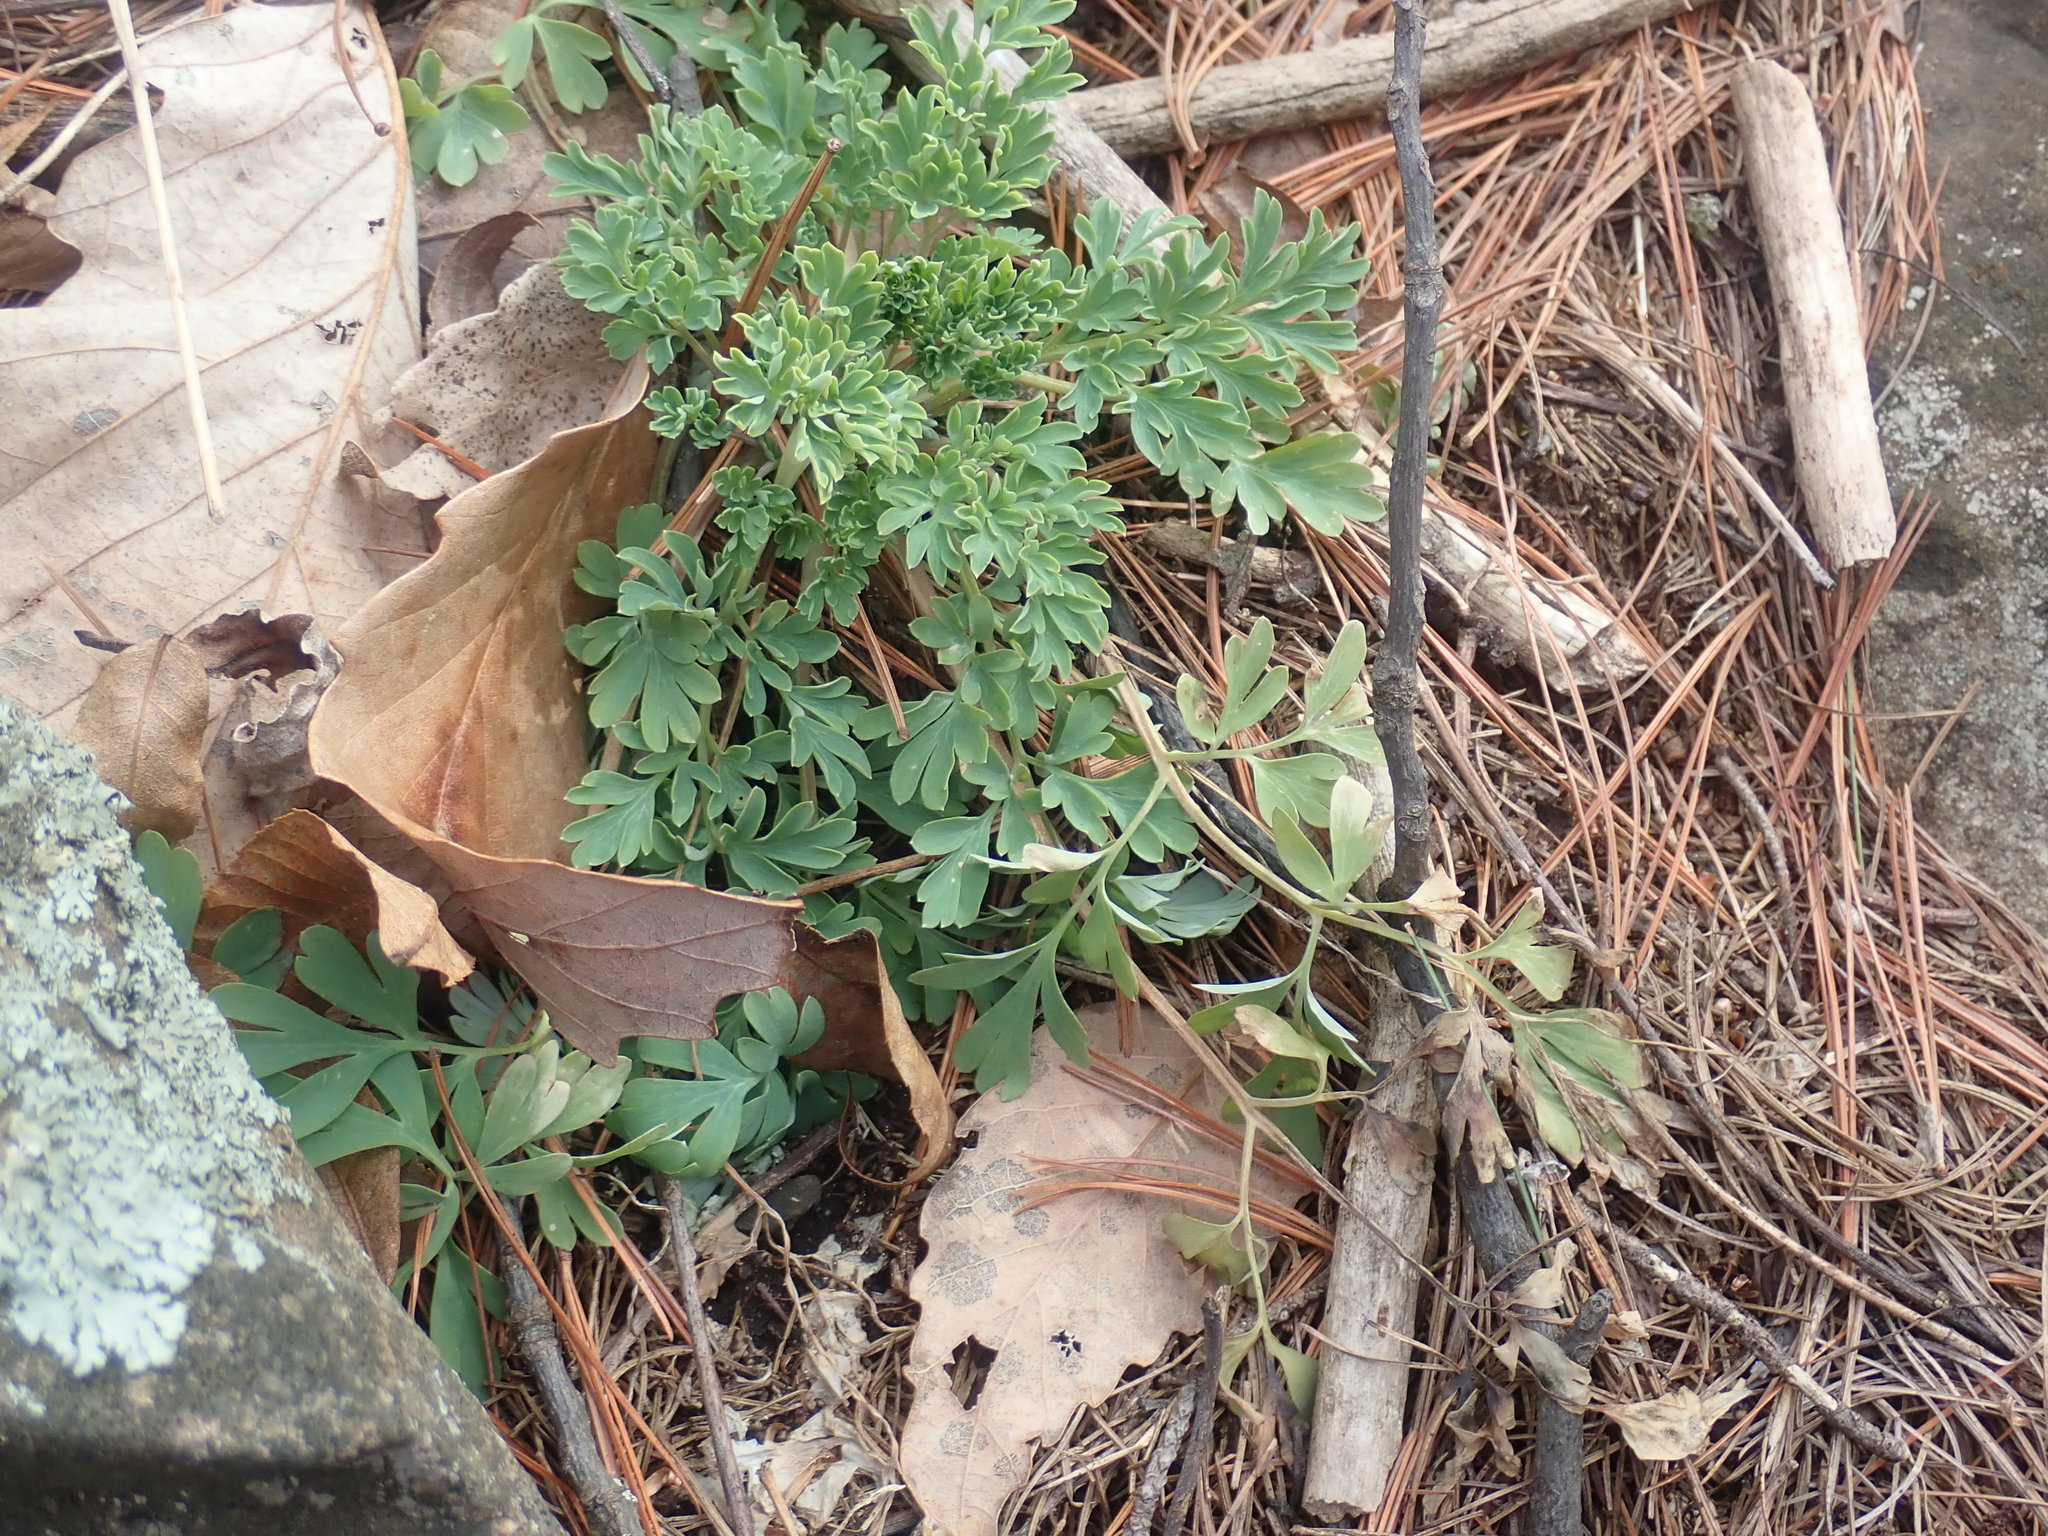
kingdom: Plantae
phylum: Tracheophyta
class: Magnoliopsida
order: Ranunculales
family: Papaveraceae
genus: Capnoides
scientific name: Capnoides sempervirens
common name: Rock harlequin
